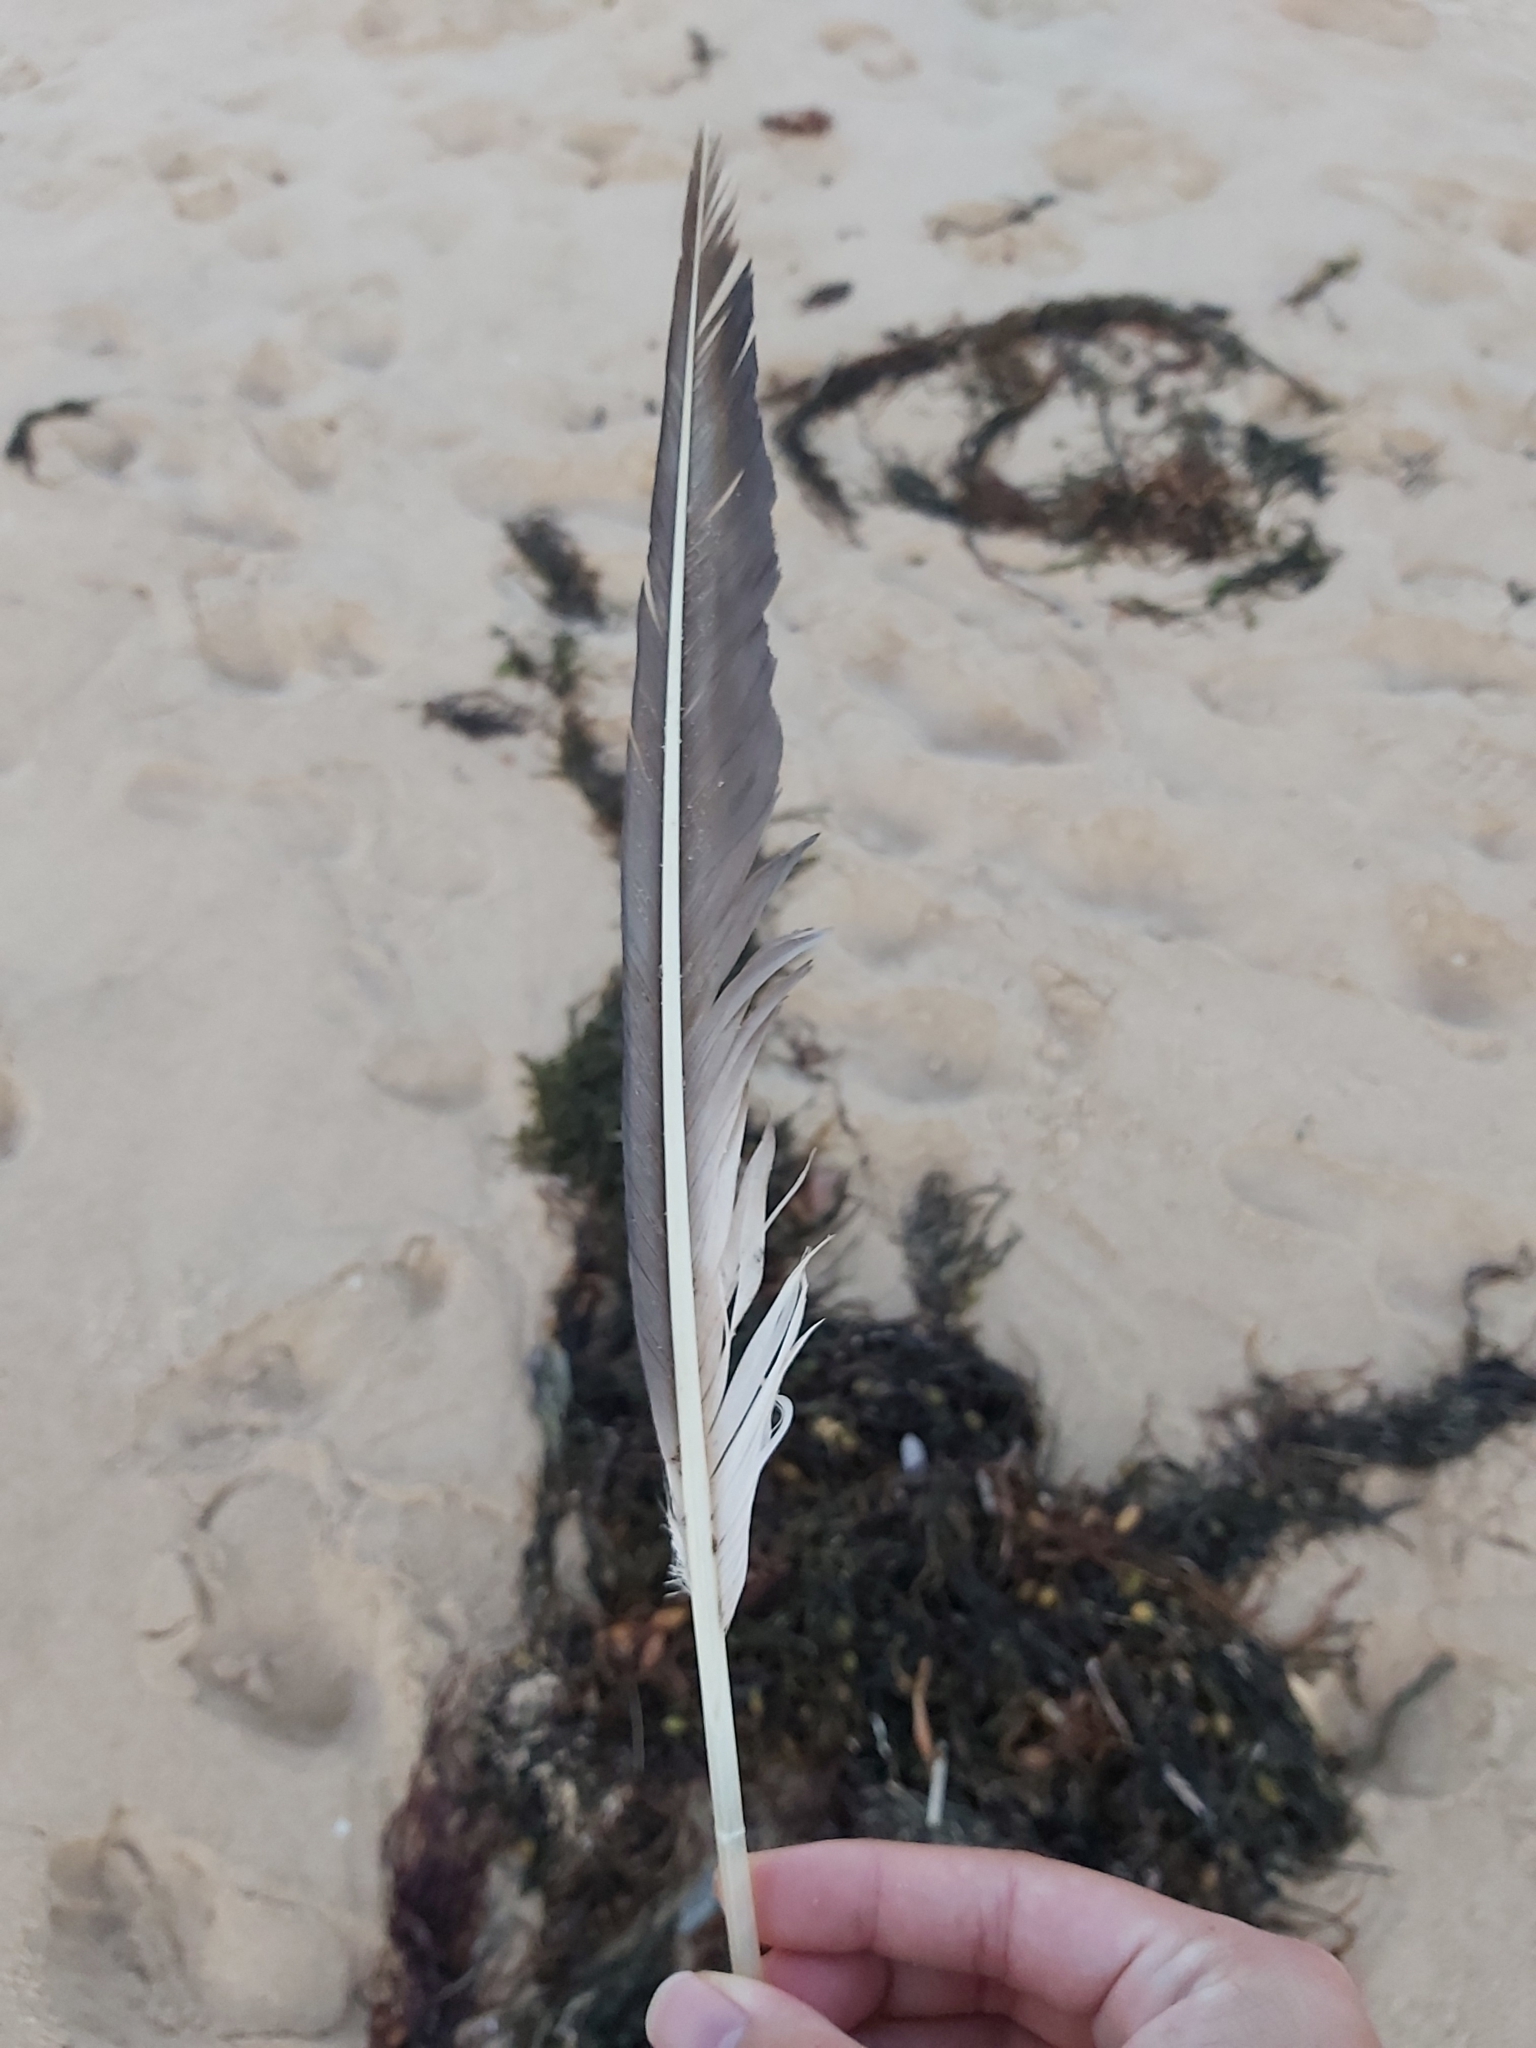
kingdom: Animalia
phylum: Chordata
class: Aves
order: Suliformes
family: Sulidae
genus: Morus
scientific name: Morus serrator
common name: Australasian gannet
